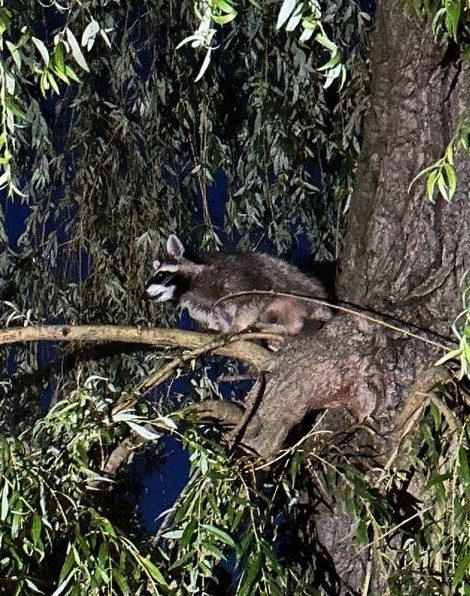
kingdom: Animalia
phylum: Chordata
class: Mammalia
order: Carnivora
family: Procyonidae
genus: Procyon
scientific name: Procyon lotor
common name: Raccoon
